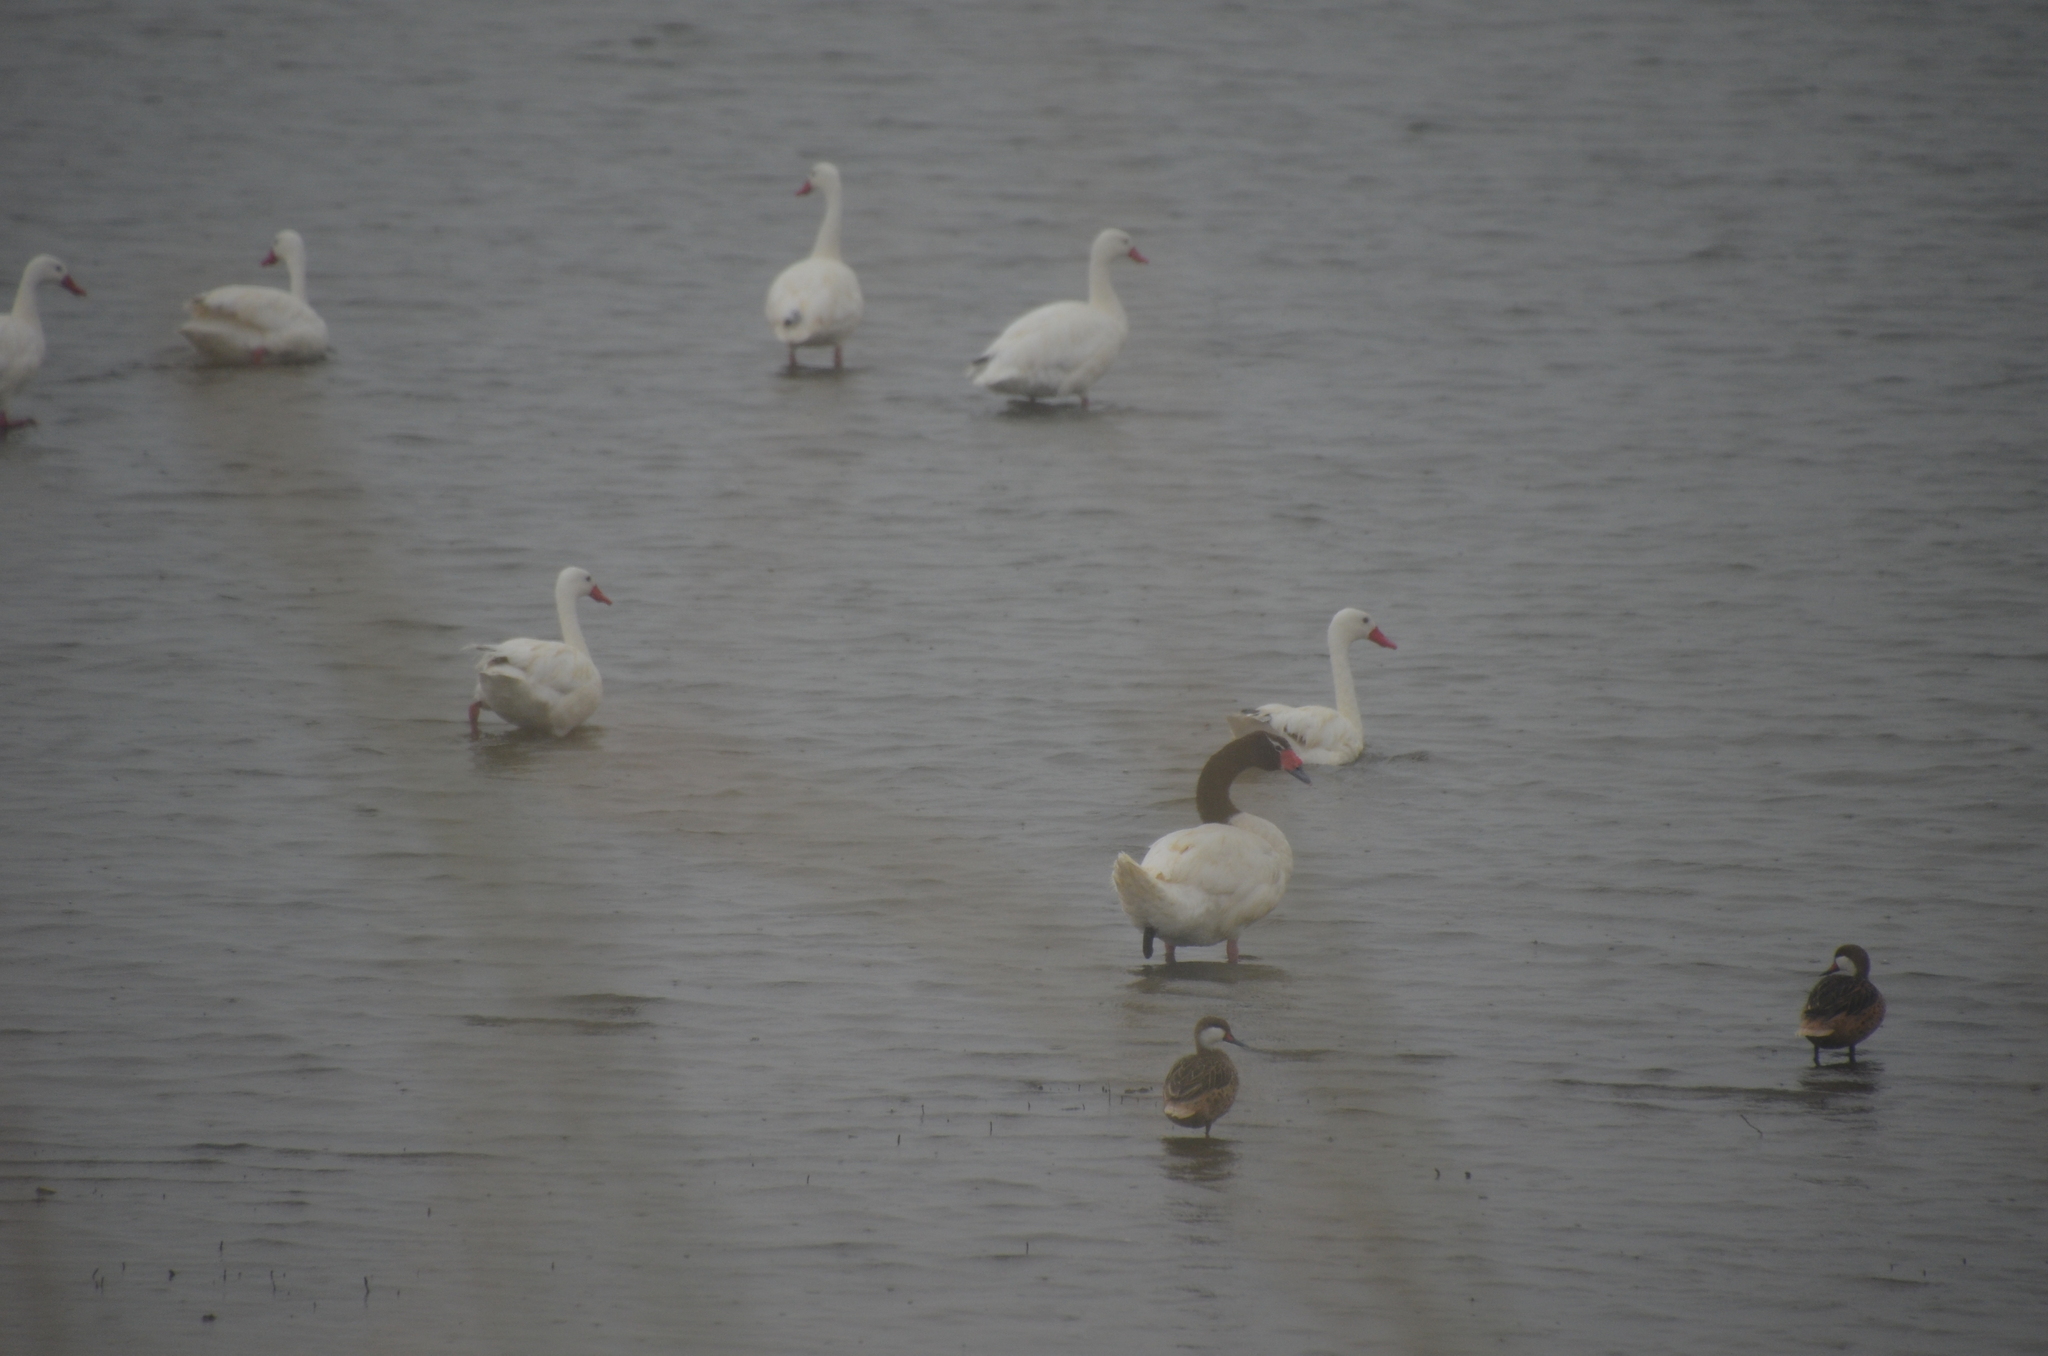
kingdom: Animalia
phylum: Chordata
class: Aves
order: Anseriformes
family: Anatidae
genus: Anas
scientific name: Anas bahamensis
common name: White-cheeked pintail
